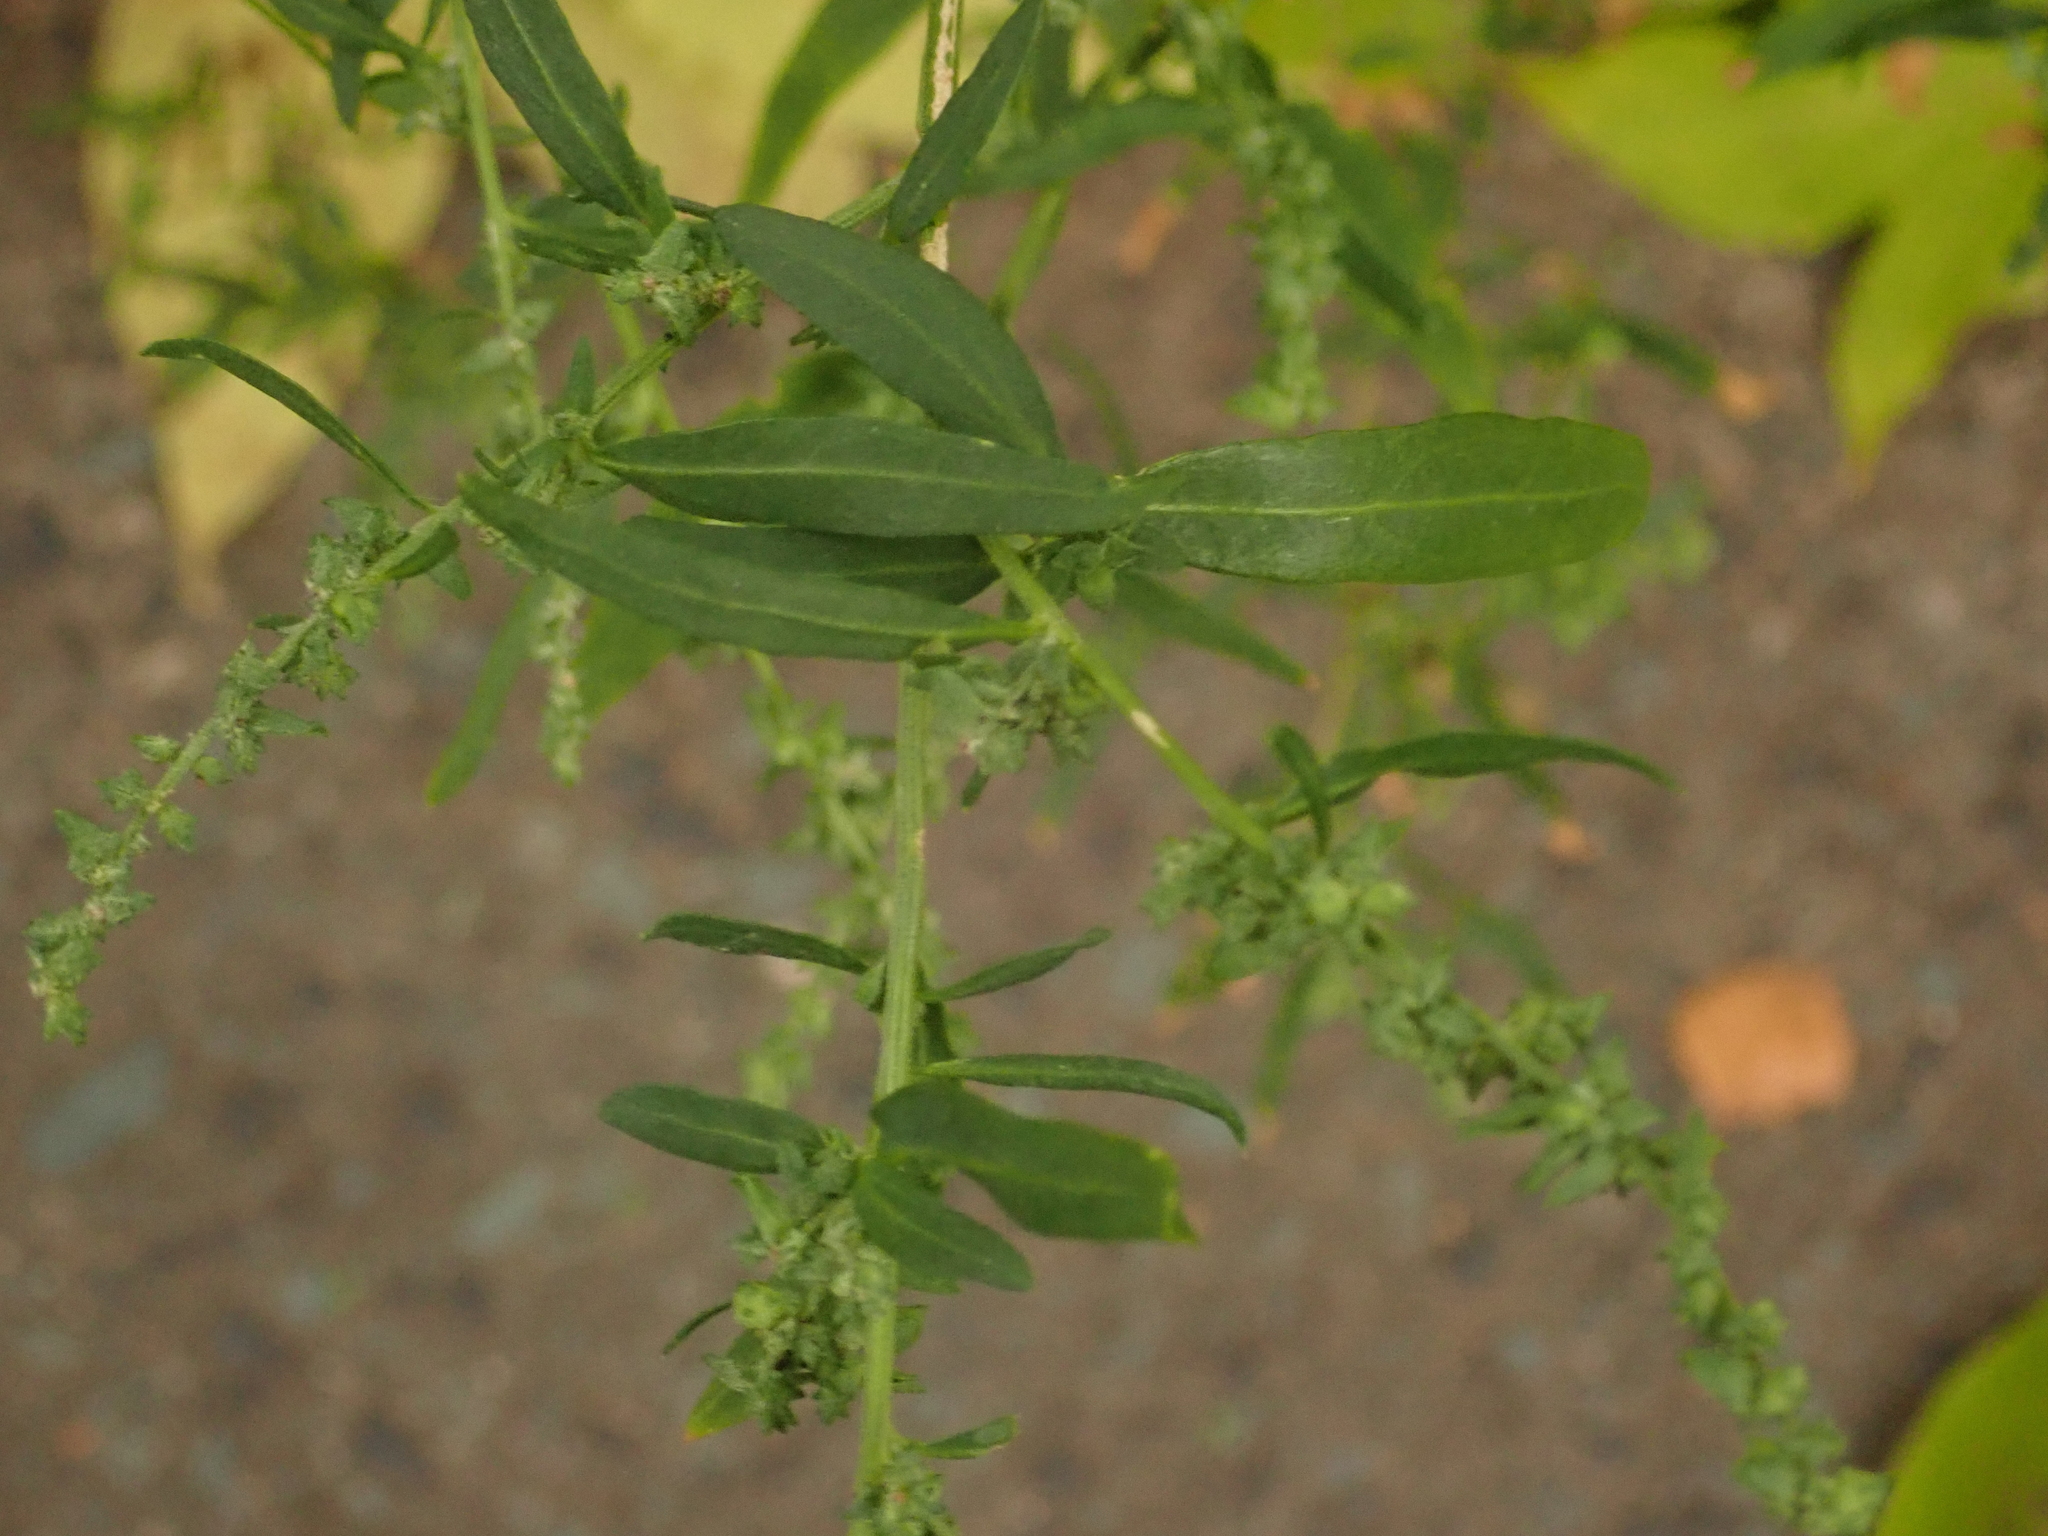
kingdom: Plantae
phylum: Tracheophyta
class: Magnoliopsida
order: Caryophyllales
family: Amaranthaceae
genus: Atriplex
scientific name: Atriplex patula
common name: Common orache
